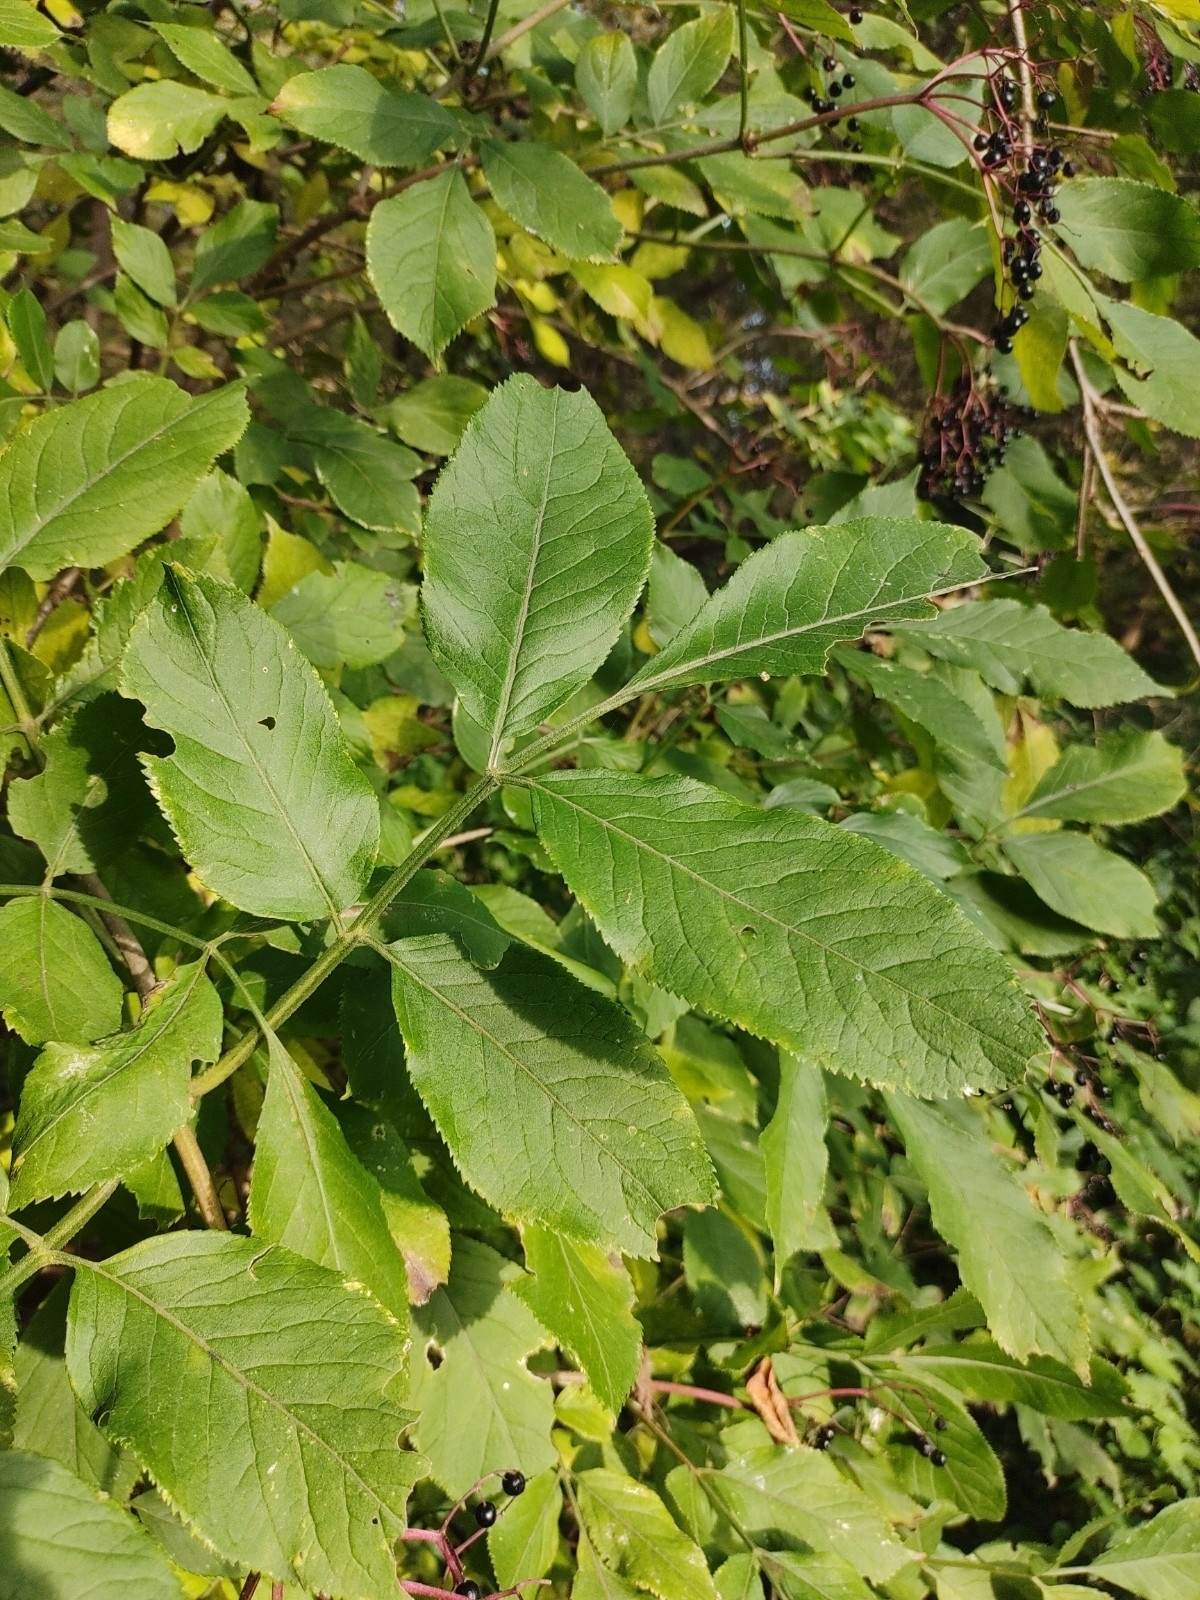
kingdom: Plantae
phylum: Tracheophyta
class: Magnoliopsida
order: Dipsacales
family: Viburnaceae
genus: Sambucus
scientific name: Sambucus nigra
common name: Elder
